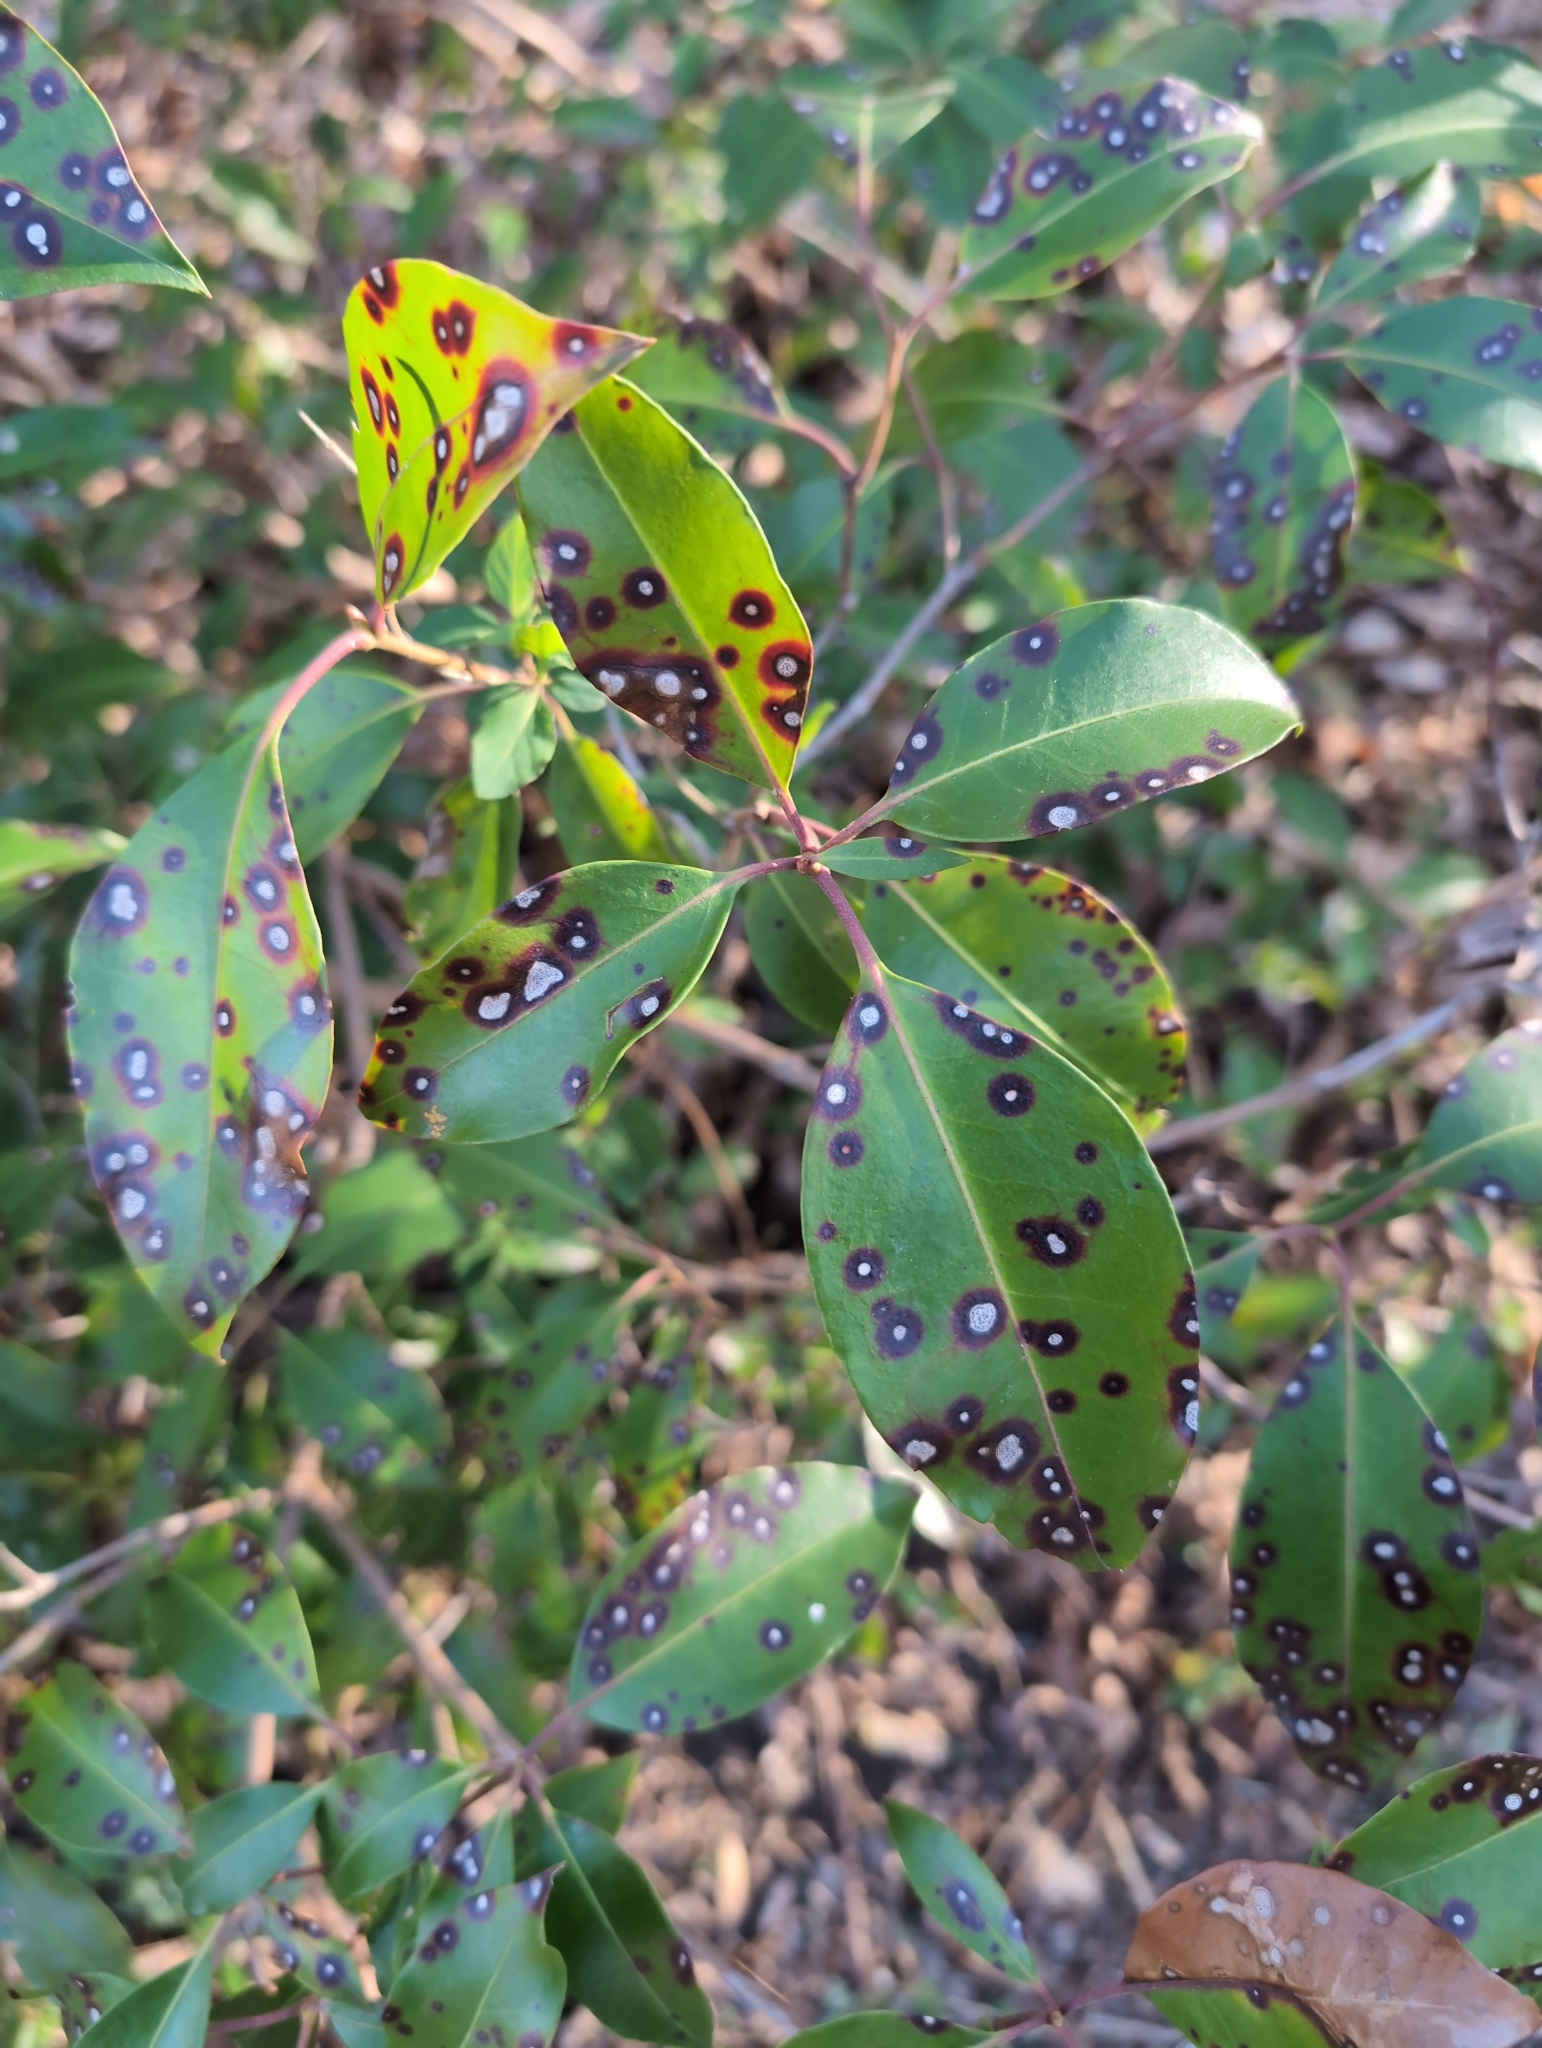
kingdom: Fungi
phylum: Ascomycota
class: Dothideomycetes
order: Mycosphaerellales
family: Mycosphaerellaceae
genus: Mycosphaerella
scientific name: Mycosphaerella colorata
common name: Mountain laurel leaf spot
